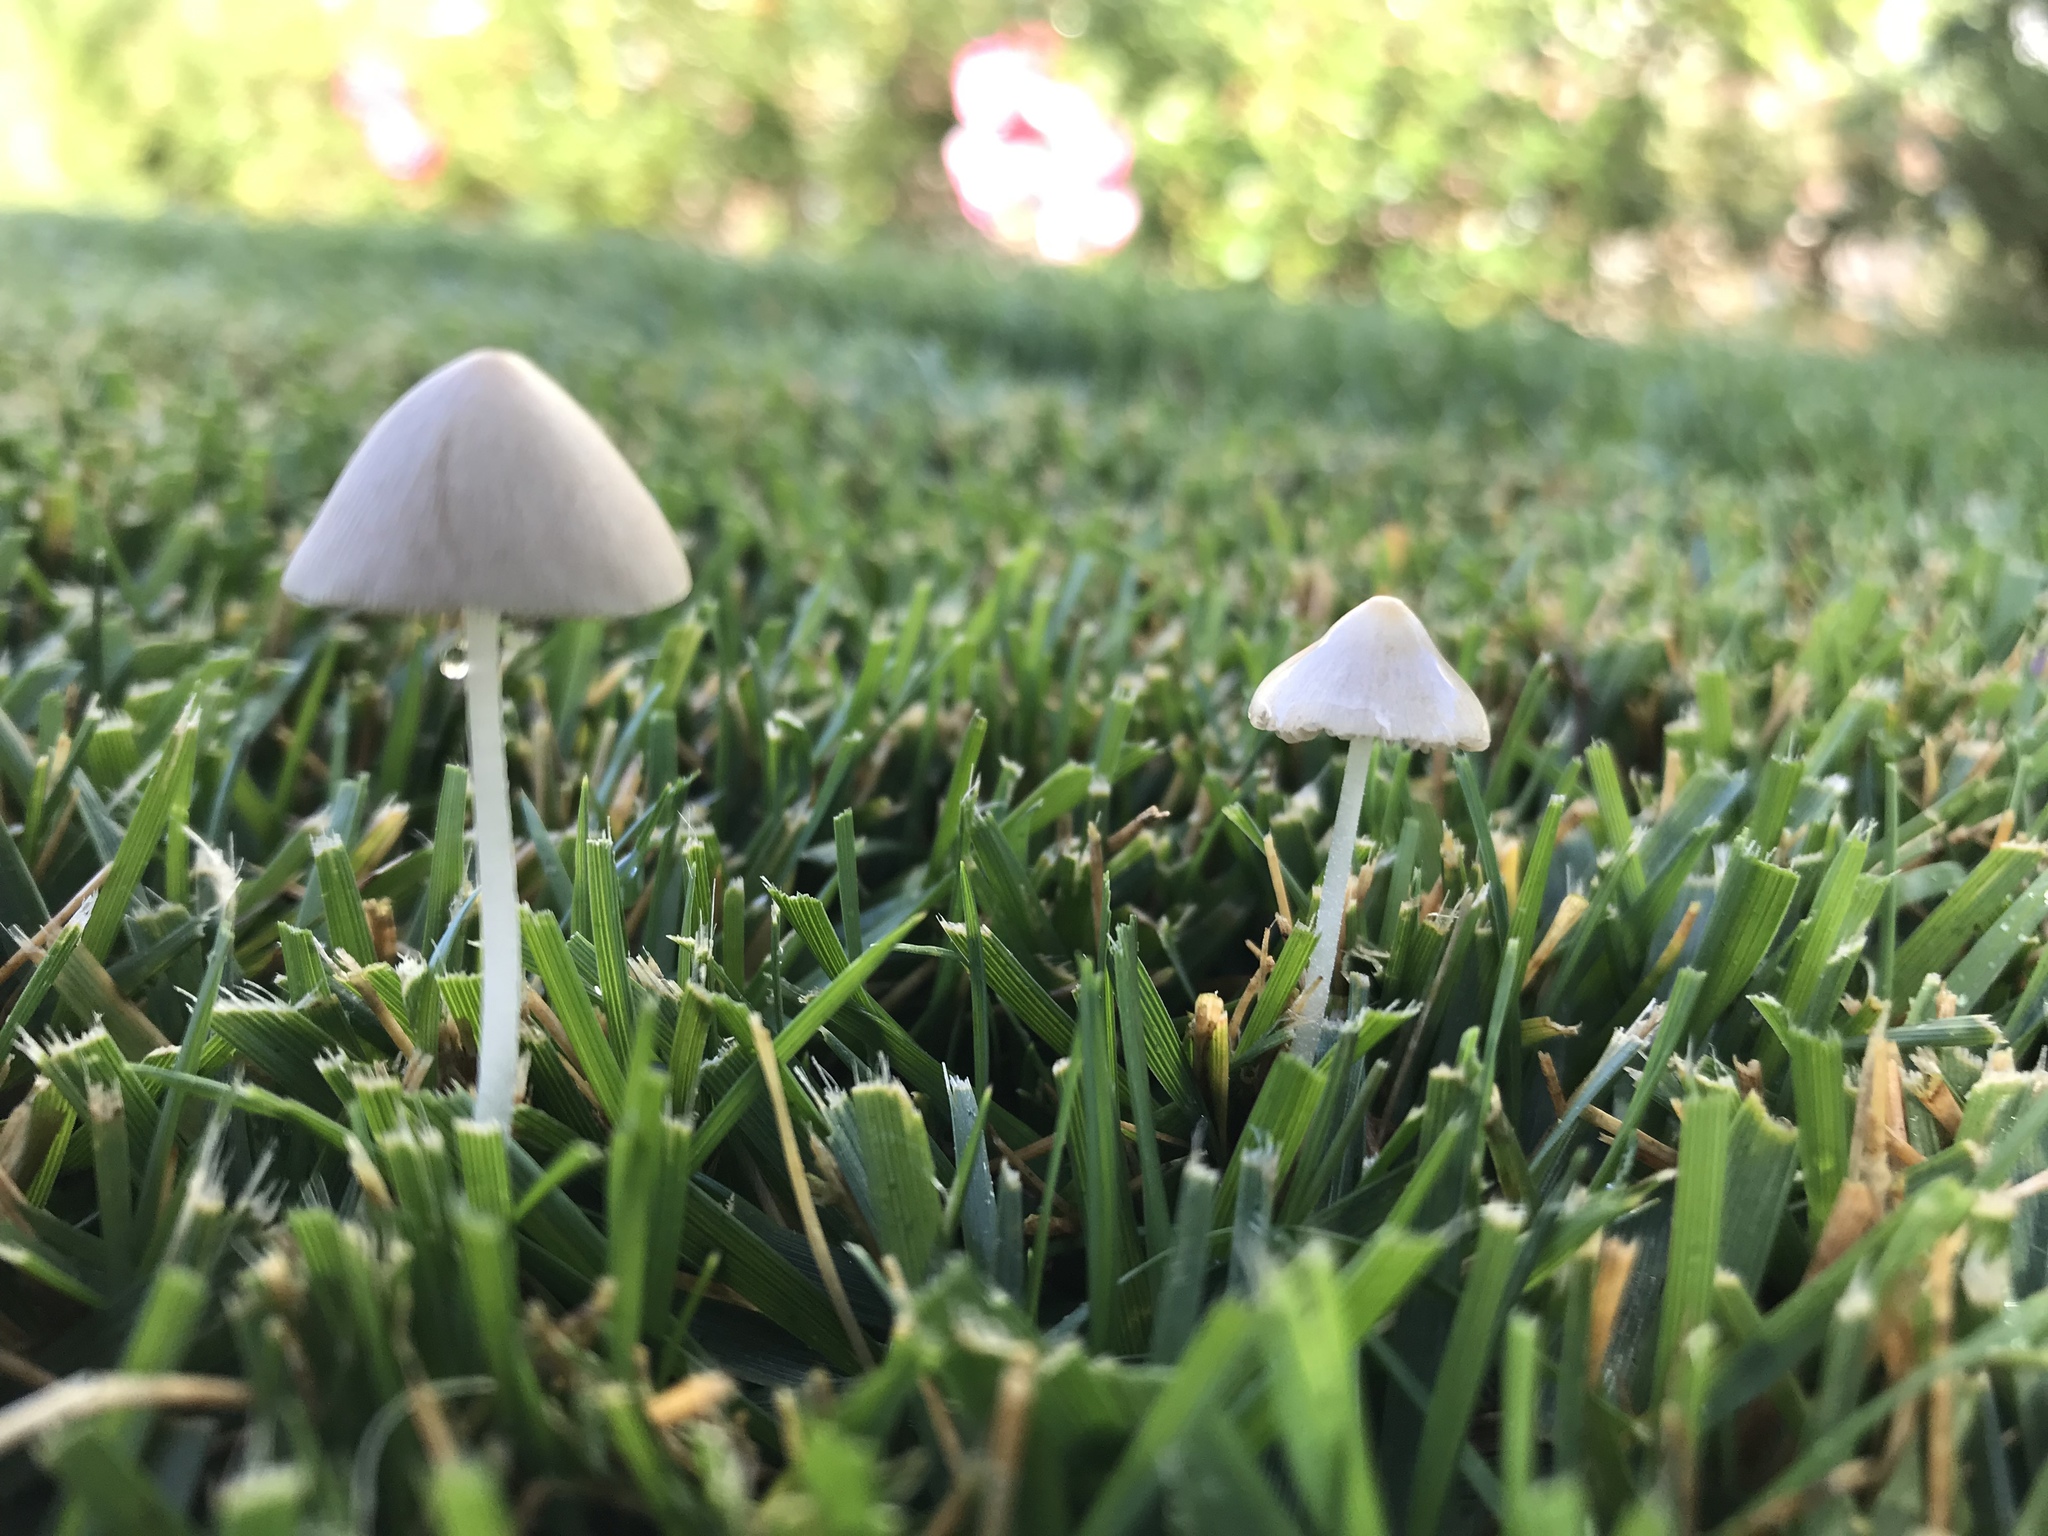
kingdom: Fungi
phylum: Basidiomycota
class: Agaricomycetes
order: Agaricales
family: Bolbitiaceae
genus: Conocybe
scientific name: Conocybe apala
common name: Milky conecap
